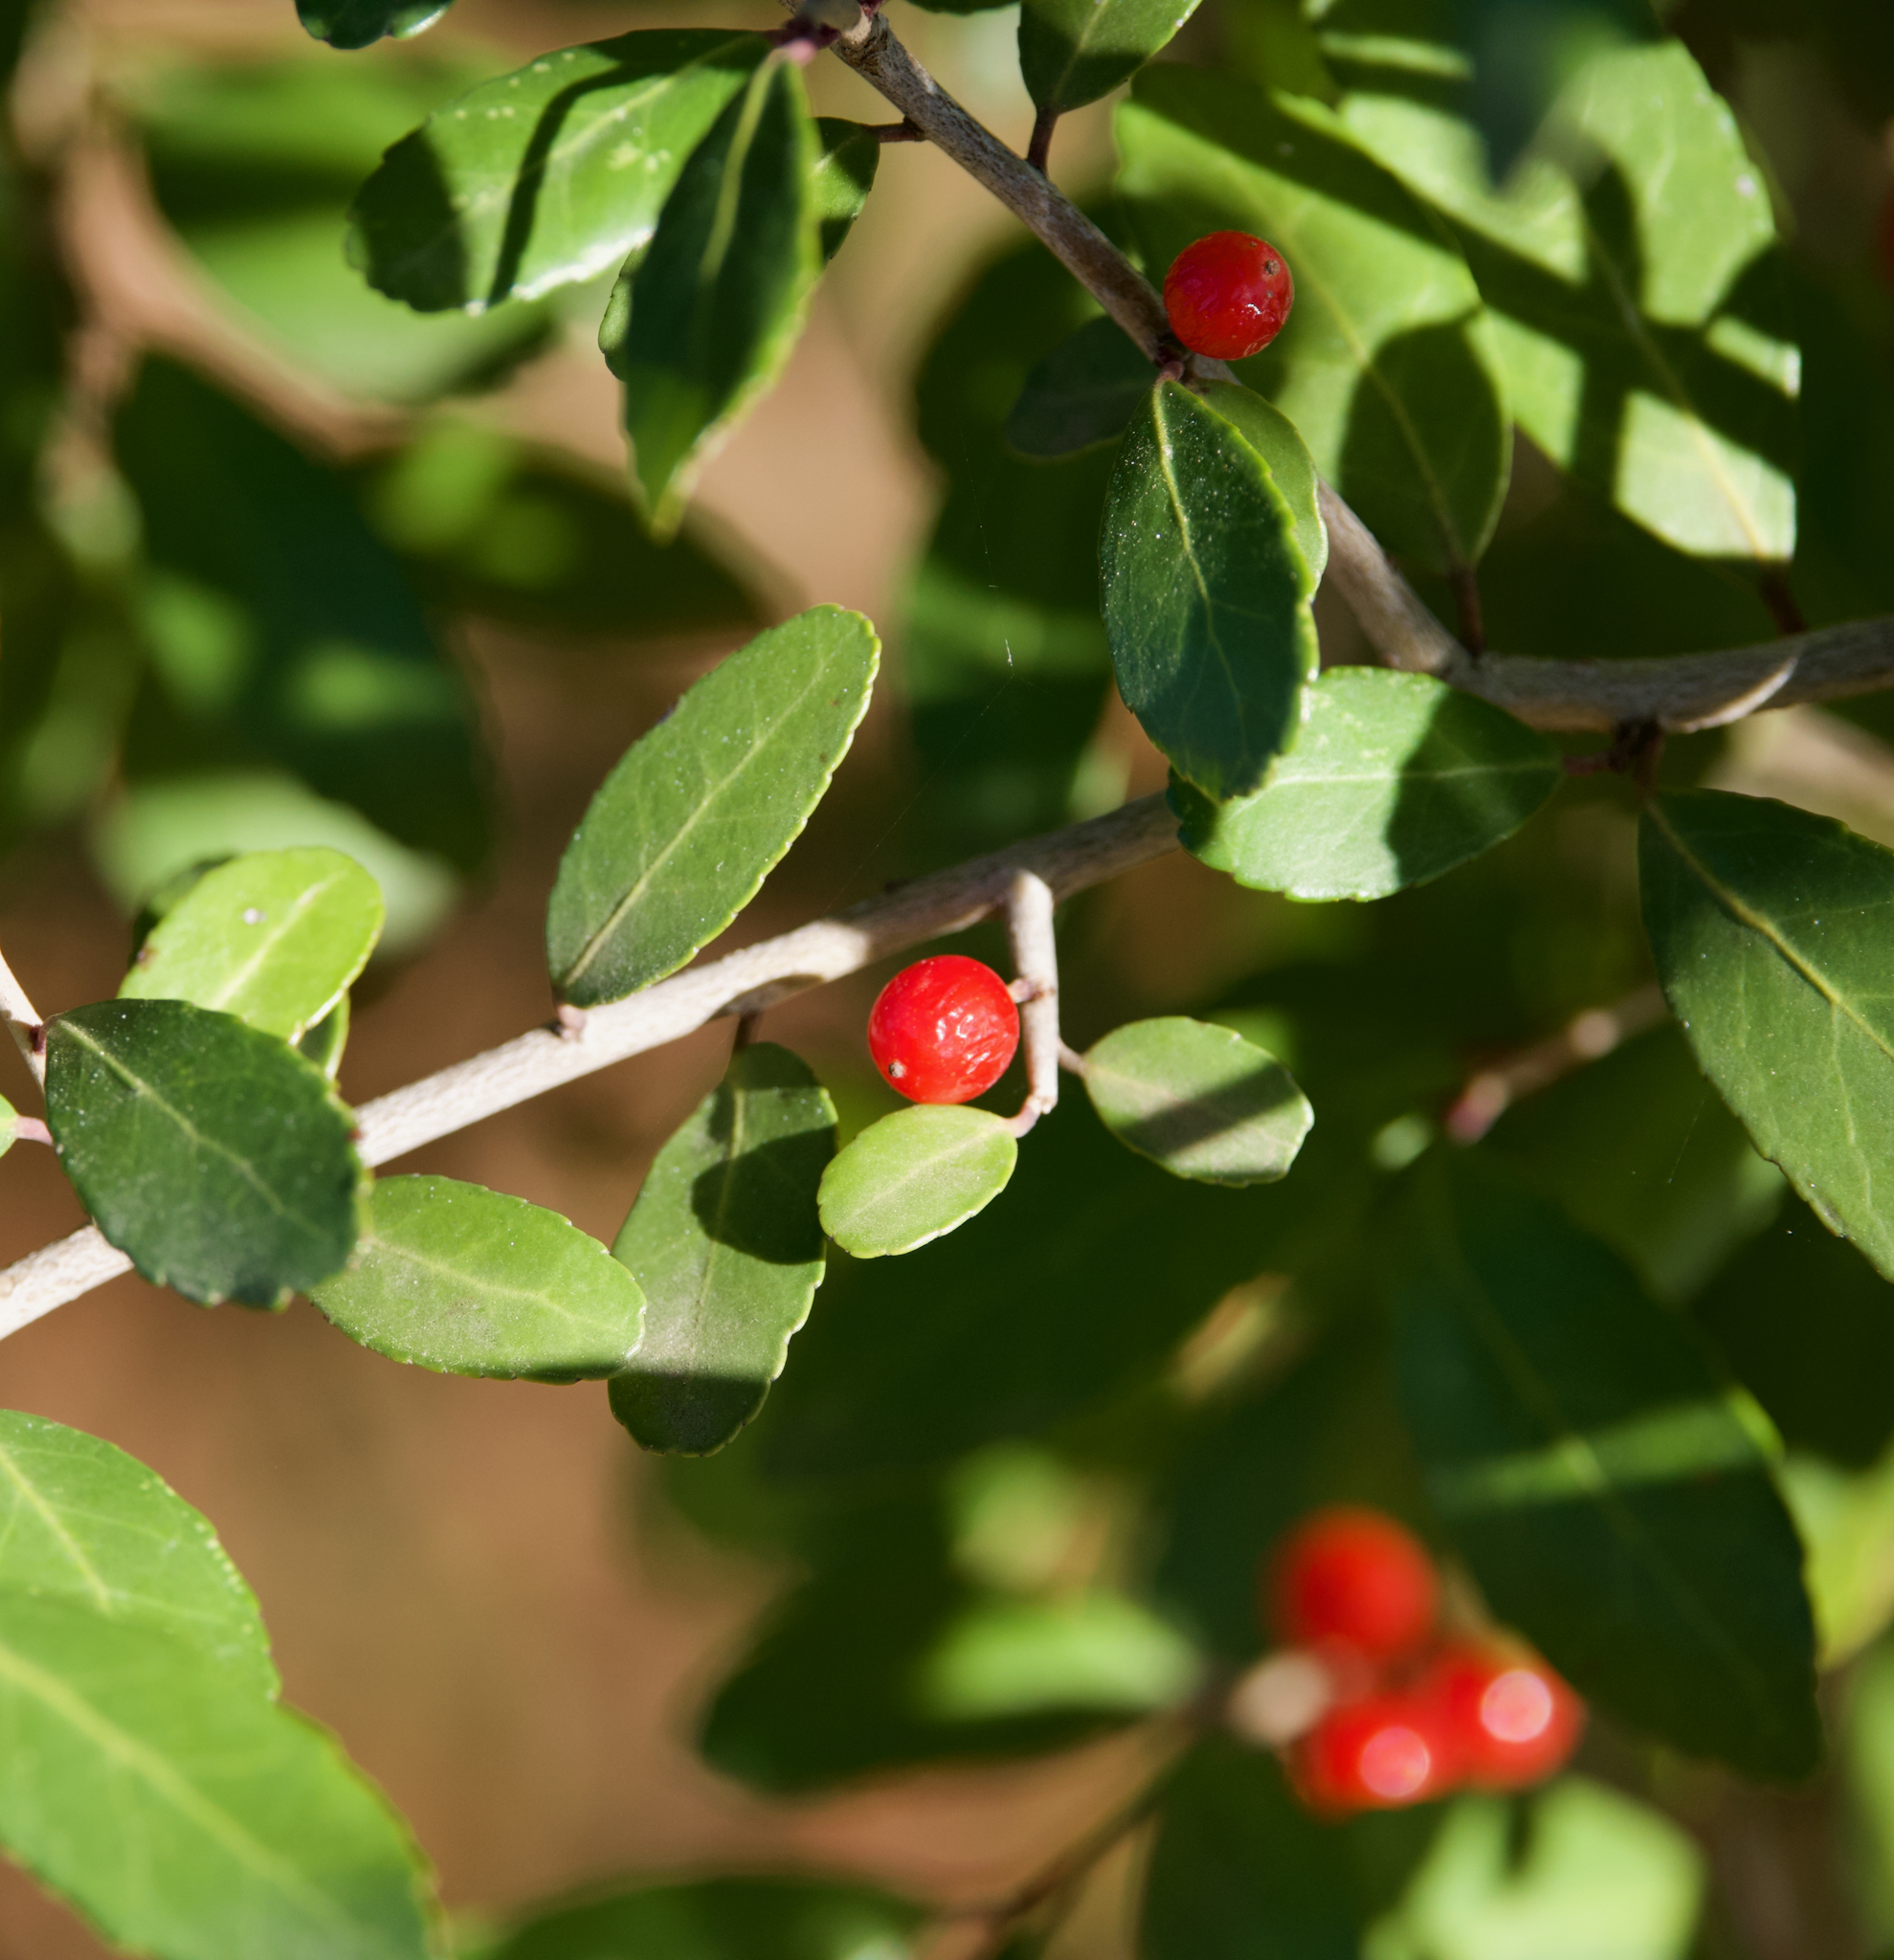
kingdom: Plantae
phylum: Tracheophyta
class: Magnoliopsida
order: Aquifoliales
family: Aquifoliaceae
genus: Ilex
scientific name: Ilex vomitoria
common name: Yaupon holly
